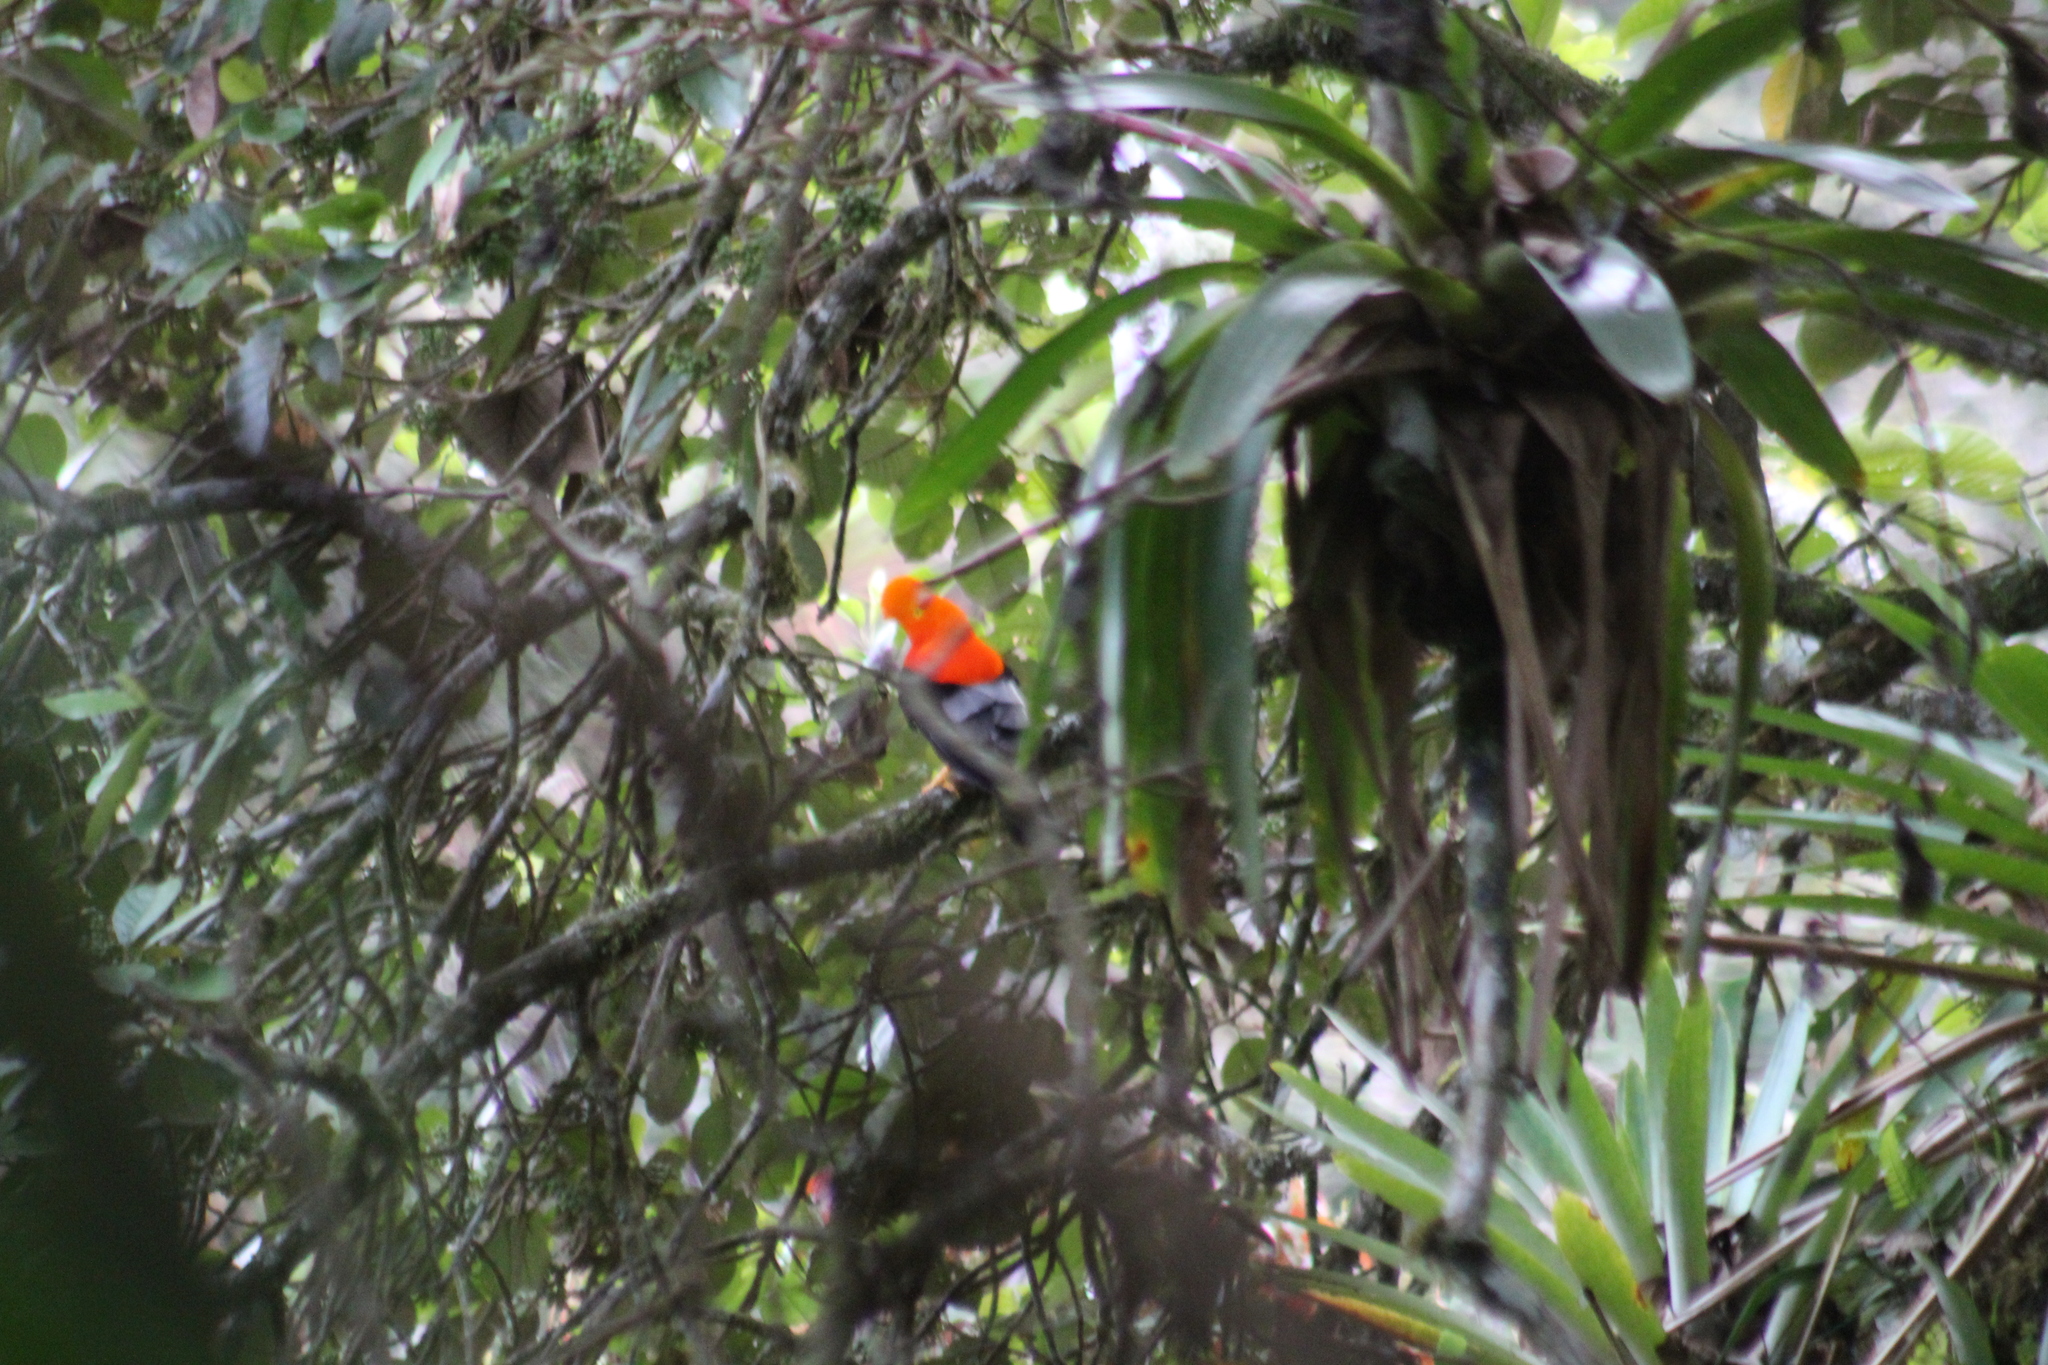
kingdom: Animalia
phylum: Chordata
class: Aves
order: Passeriformes
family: Cotingidae
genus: Rupicola
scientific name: Rupicola peruvianus
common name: Andean cock-of-the-rock
